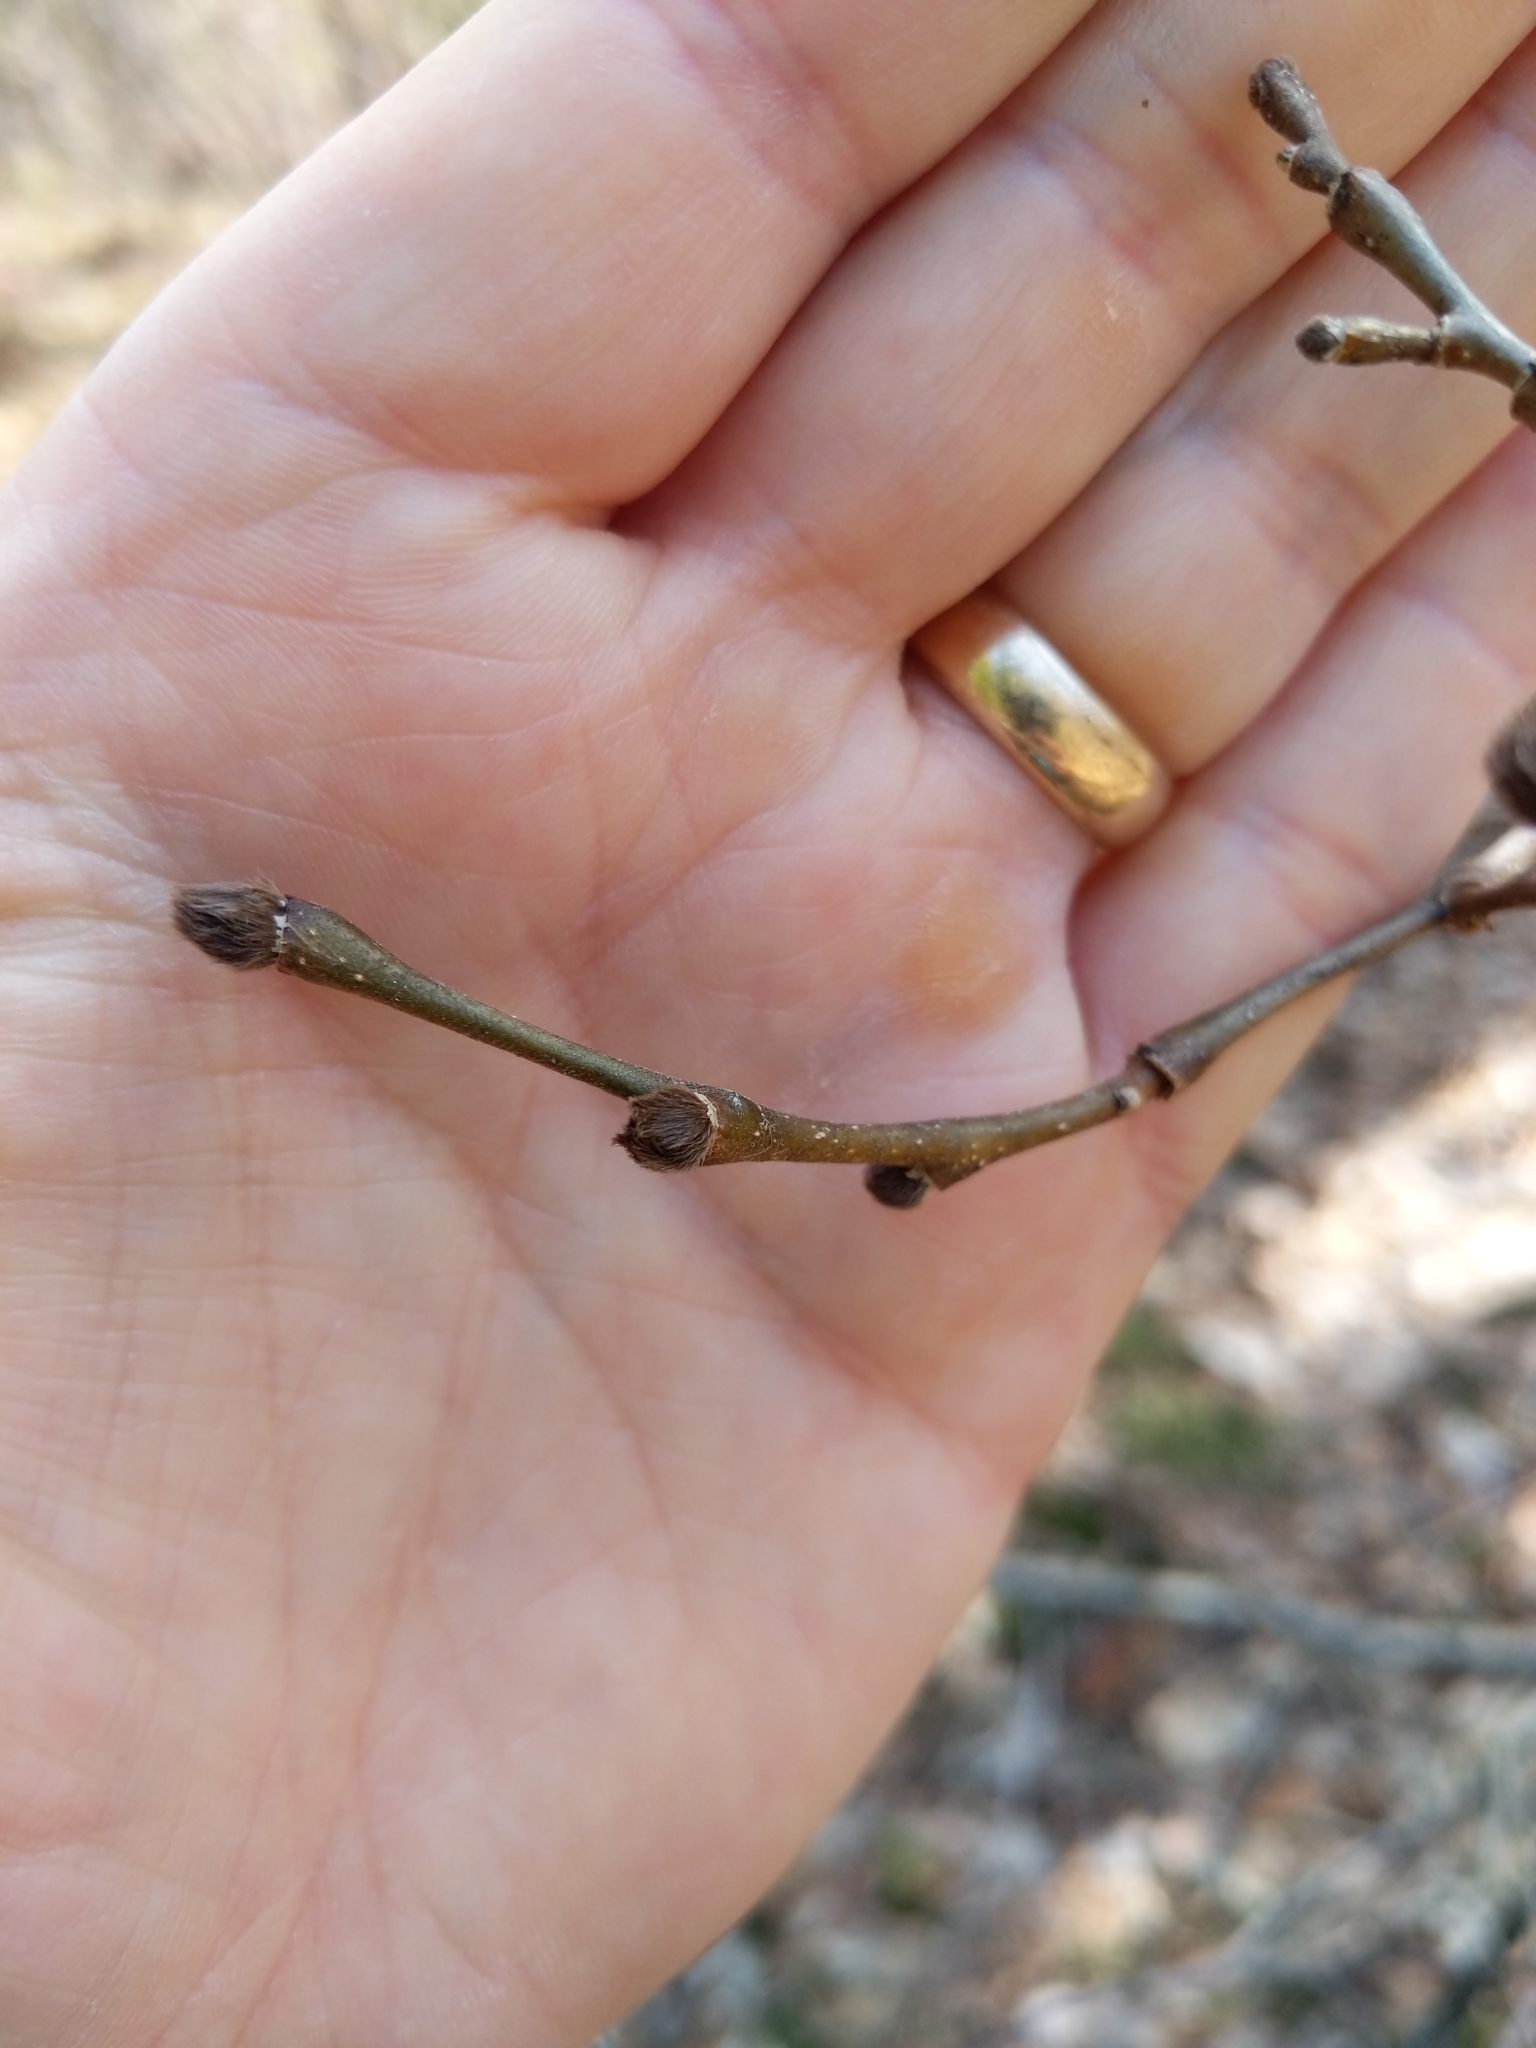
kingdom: Plantae
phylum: Tracheophyta
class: Magnoliopsida
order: Malvales
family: Thymelaeaceae
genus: Dirca
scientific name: Dirca palustris
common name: Leatherwood
